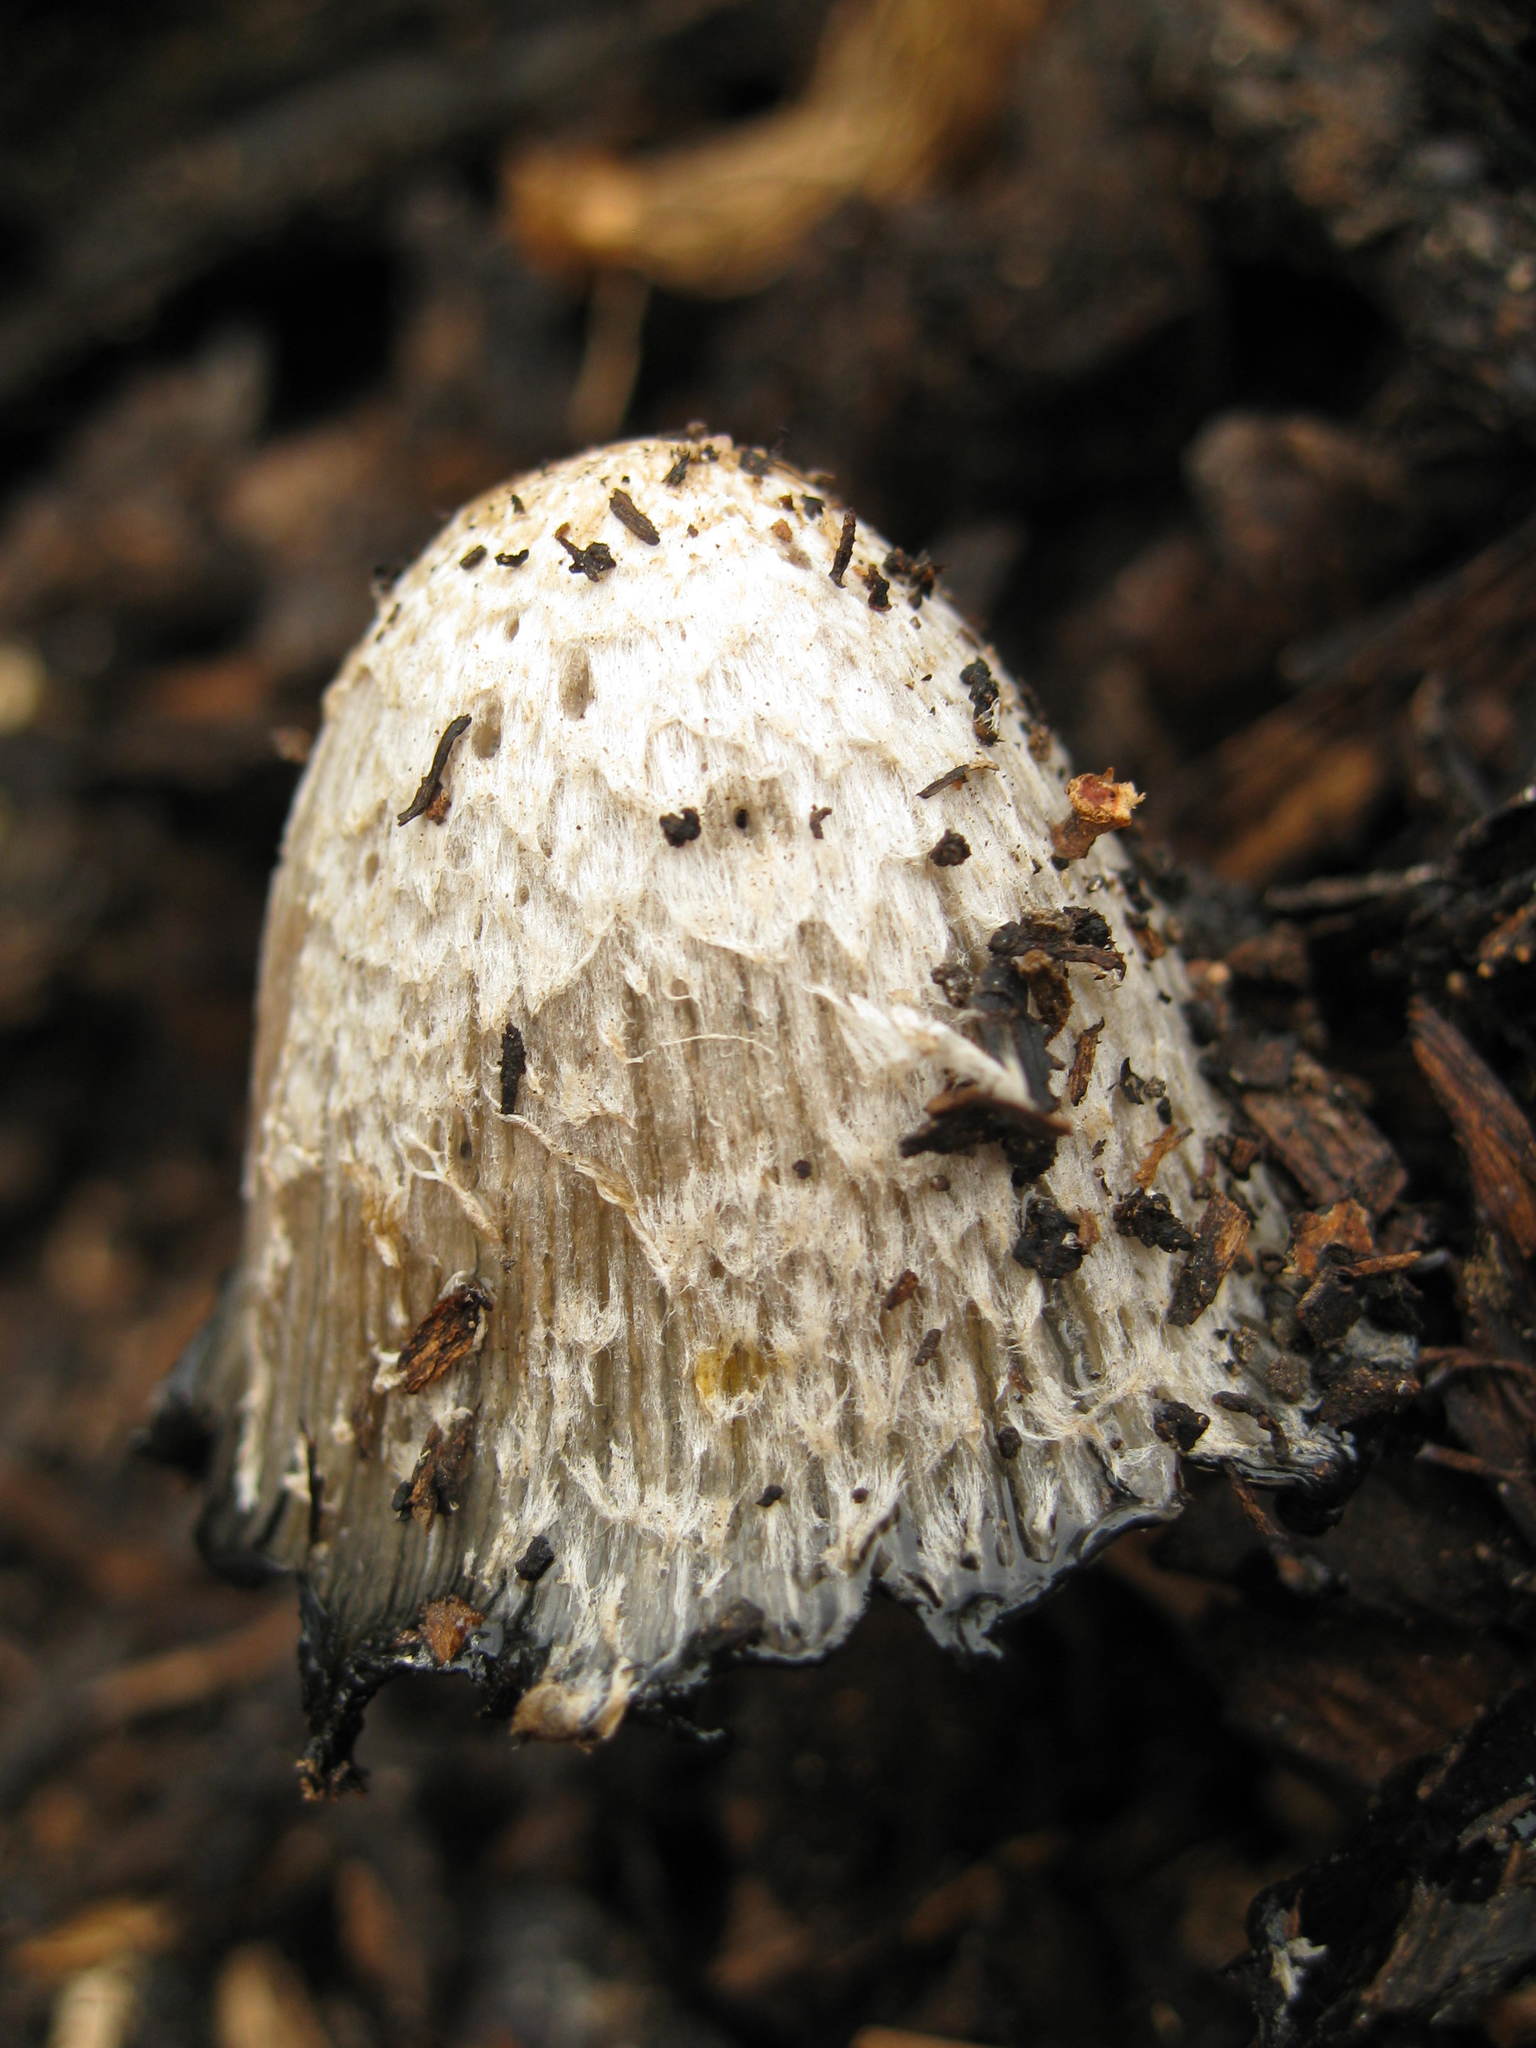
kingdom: Fungi
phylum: Basidiomycota
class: Agaricomycetes
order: Agaricales
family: Agaricaceae
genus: Coprinus
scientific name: Coprinus comatus
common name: Lawyer's wig
